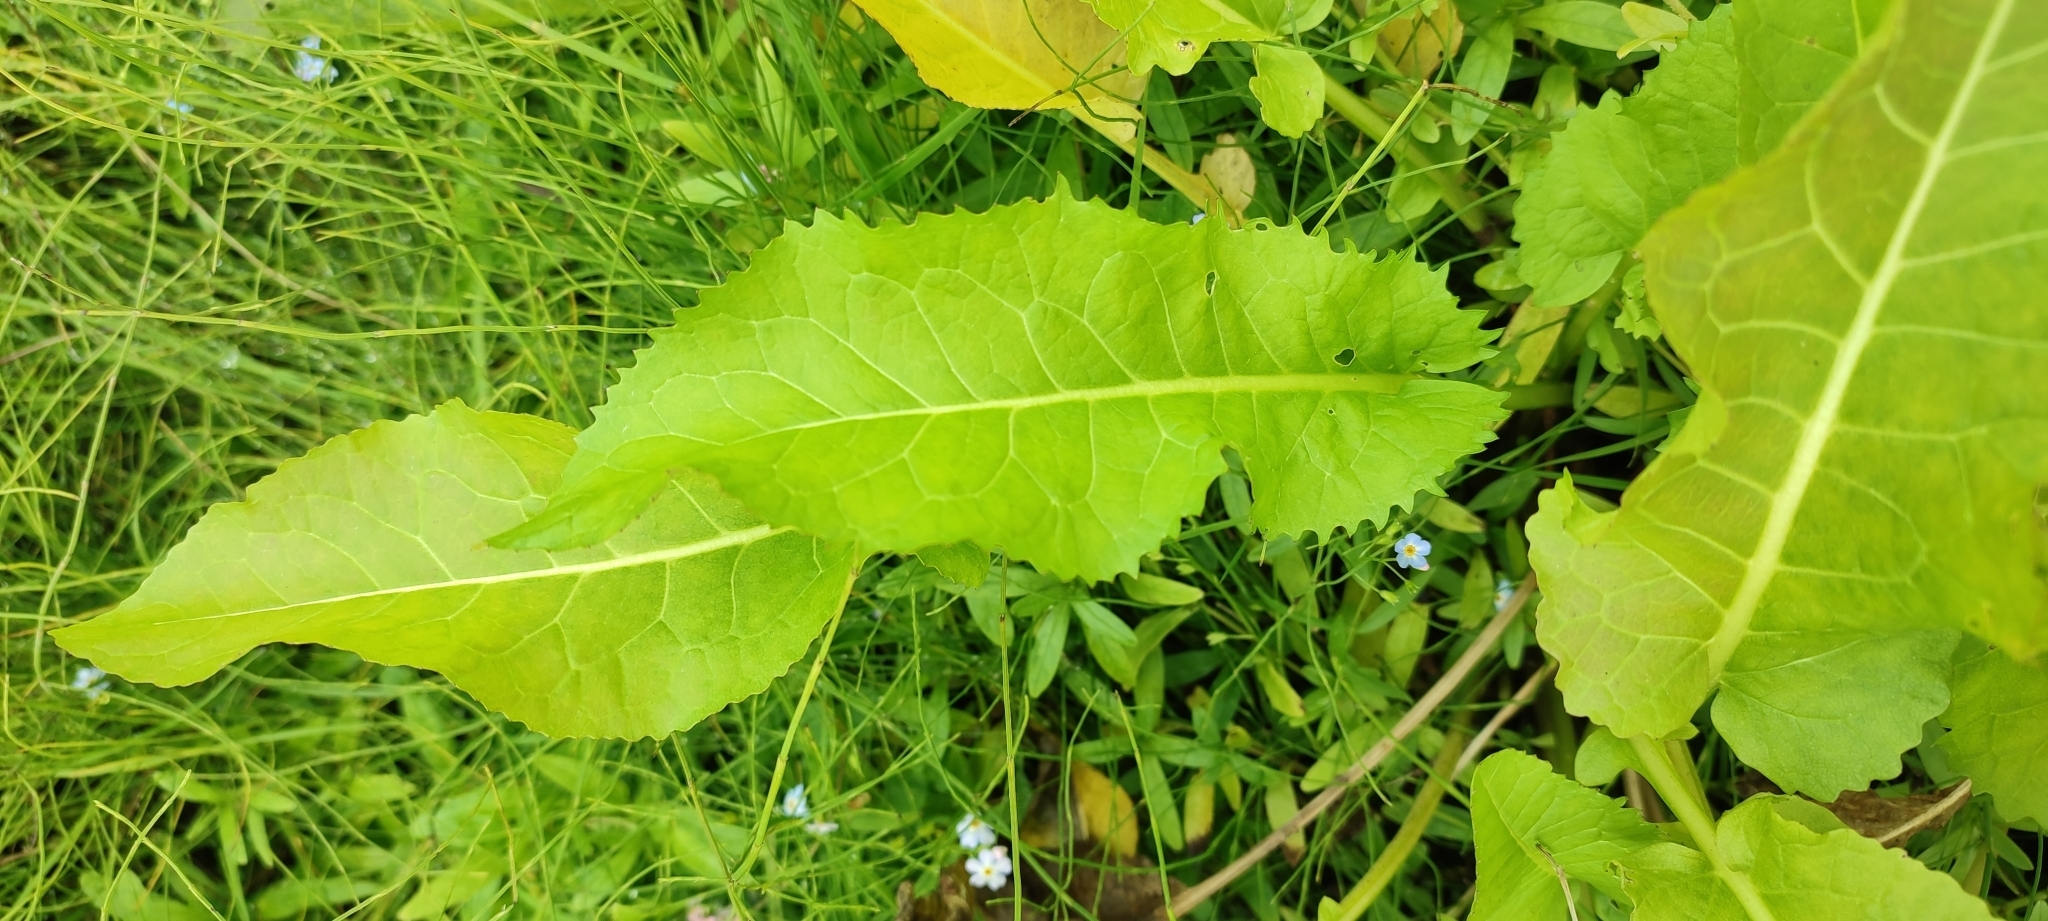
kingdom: Plantae
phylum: Tracheophyta
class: Magnoliopsida
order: Brassicales
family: Brassicaceae
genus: Rorippa
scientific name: Rorippa amphibia
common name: Great yellow-cress
